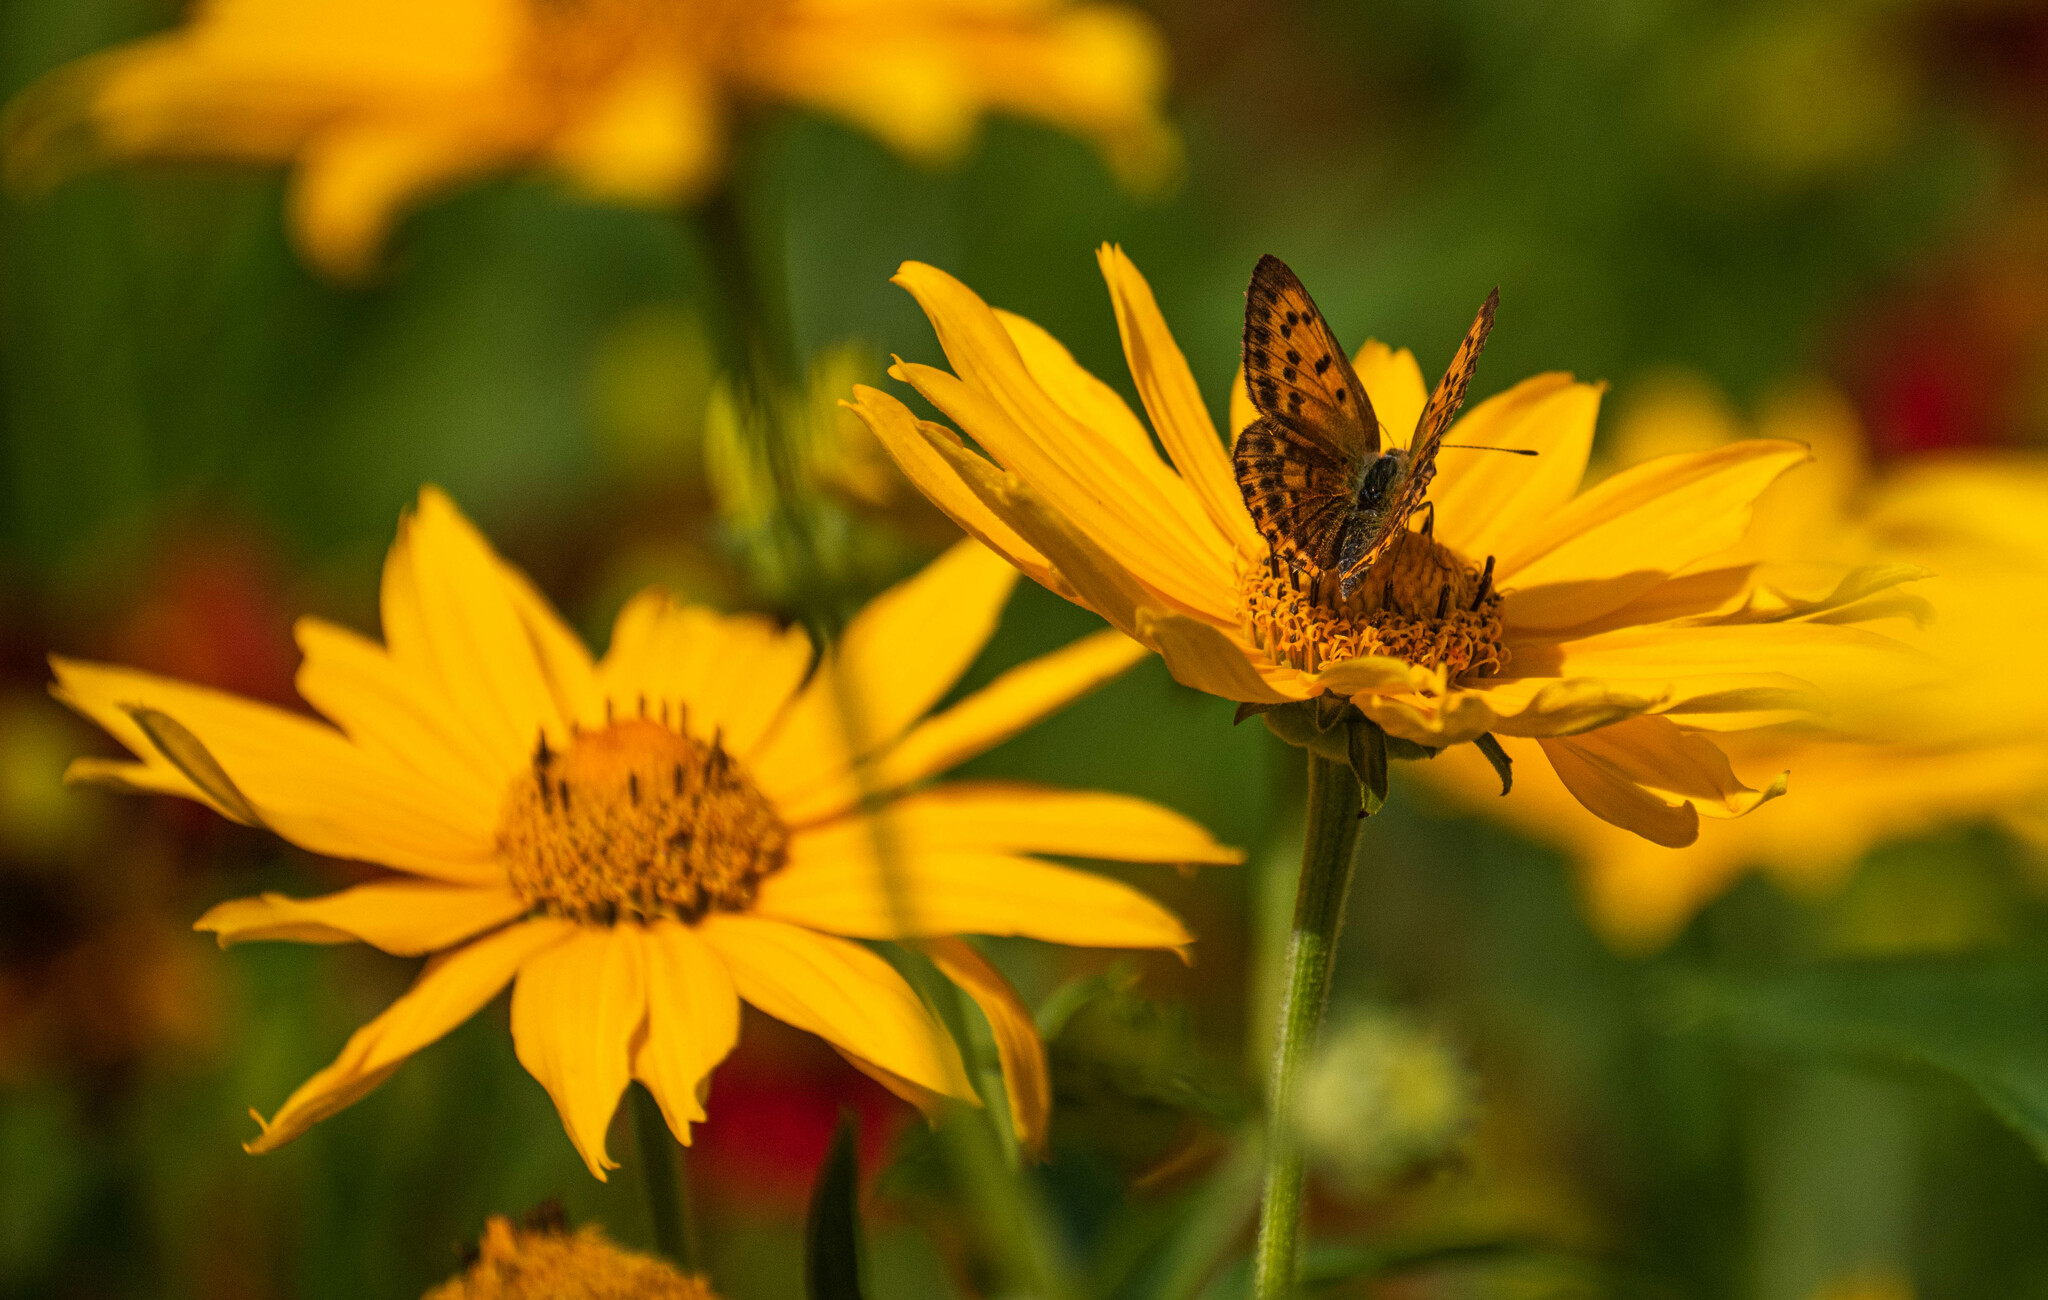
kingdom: Animalia
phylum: Arthropoda
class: Insecta
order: Lepidoptera
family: Lycaenidae
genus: Lycaena
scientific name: Lycaena virgaureae
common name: Scarce copper
